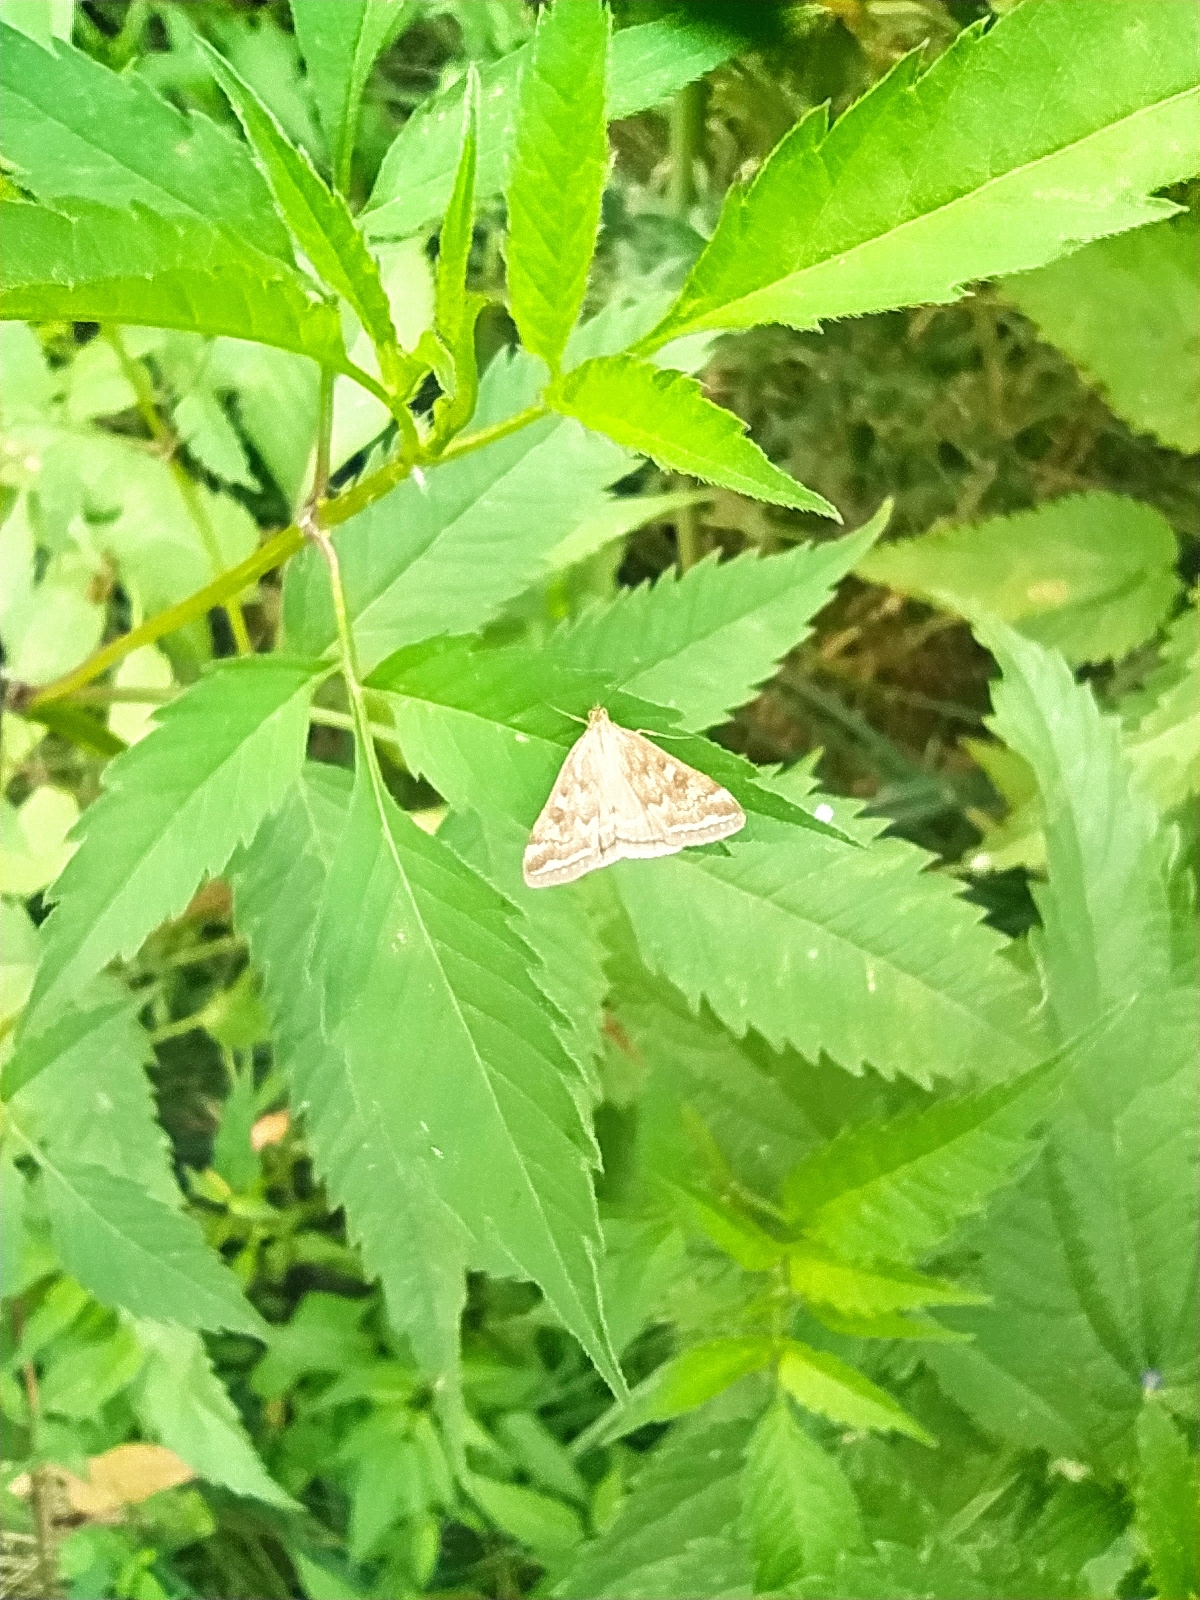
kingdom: Animalia
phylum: Arthropoda
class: Insecta
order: Lepidoptera
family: Crambidae
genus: Loxostege
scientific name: Loxostege sticticalis
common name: Crambid moth
